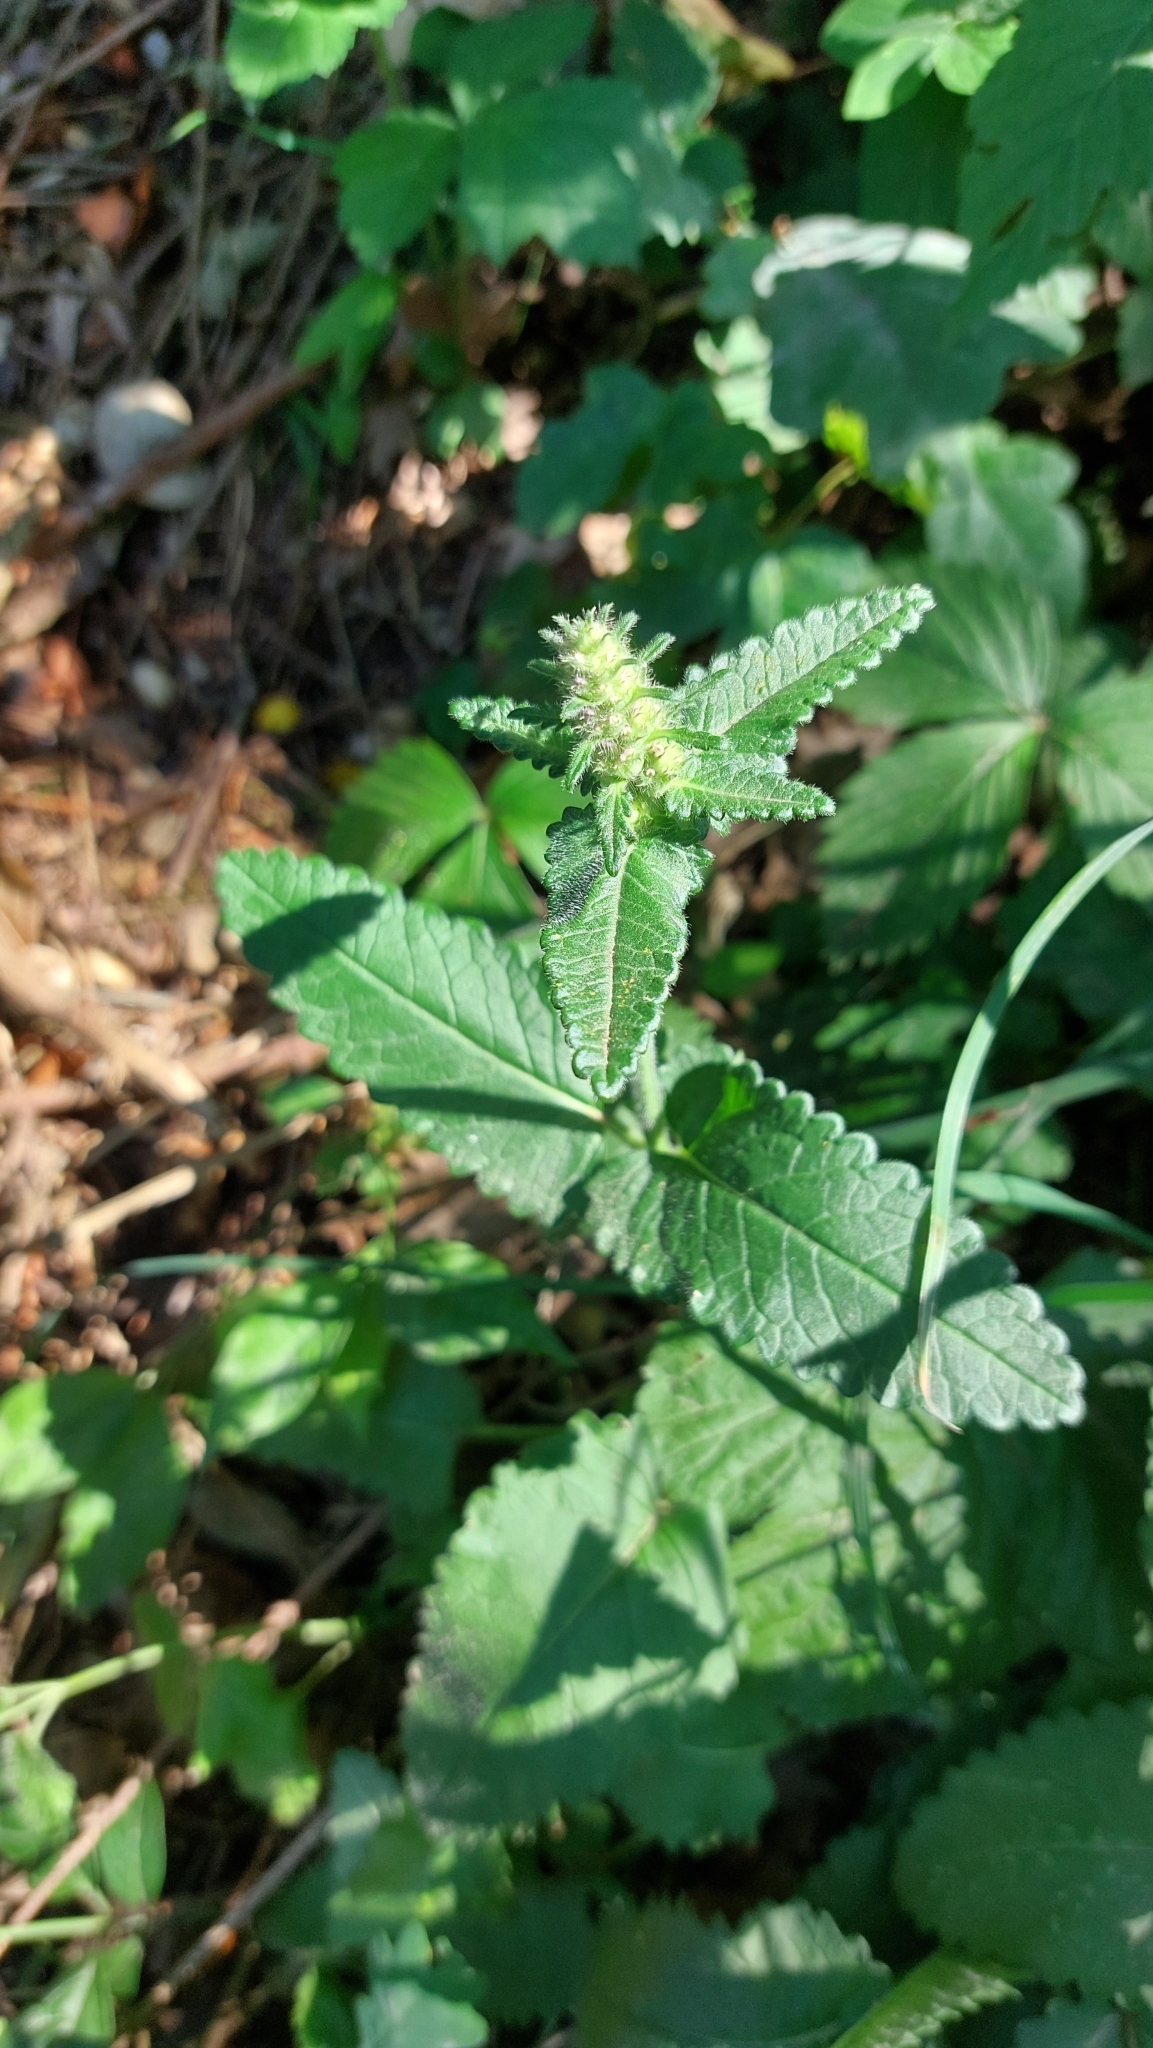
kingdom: Plantae
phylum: Tracheophyta
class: Magnoliopsida
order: Lamiales
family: Lamiaceae
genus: Betonica
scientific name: Betonica officinalis
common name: Bishop's-wort
